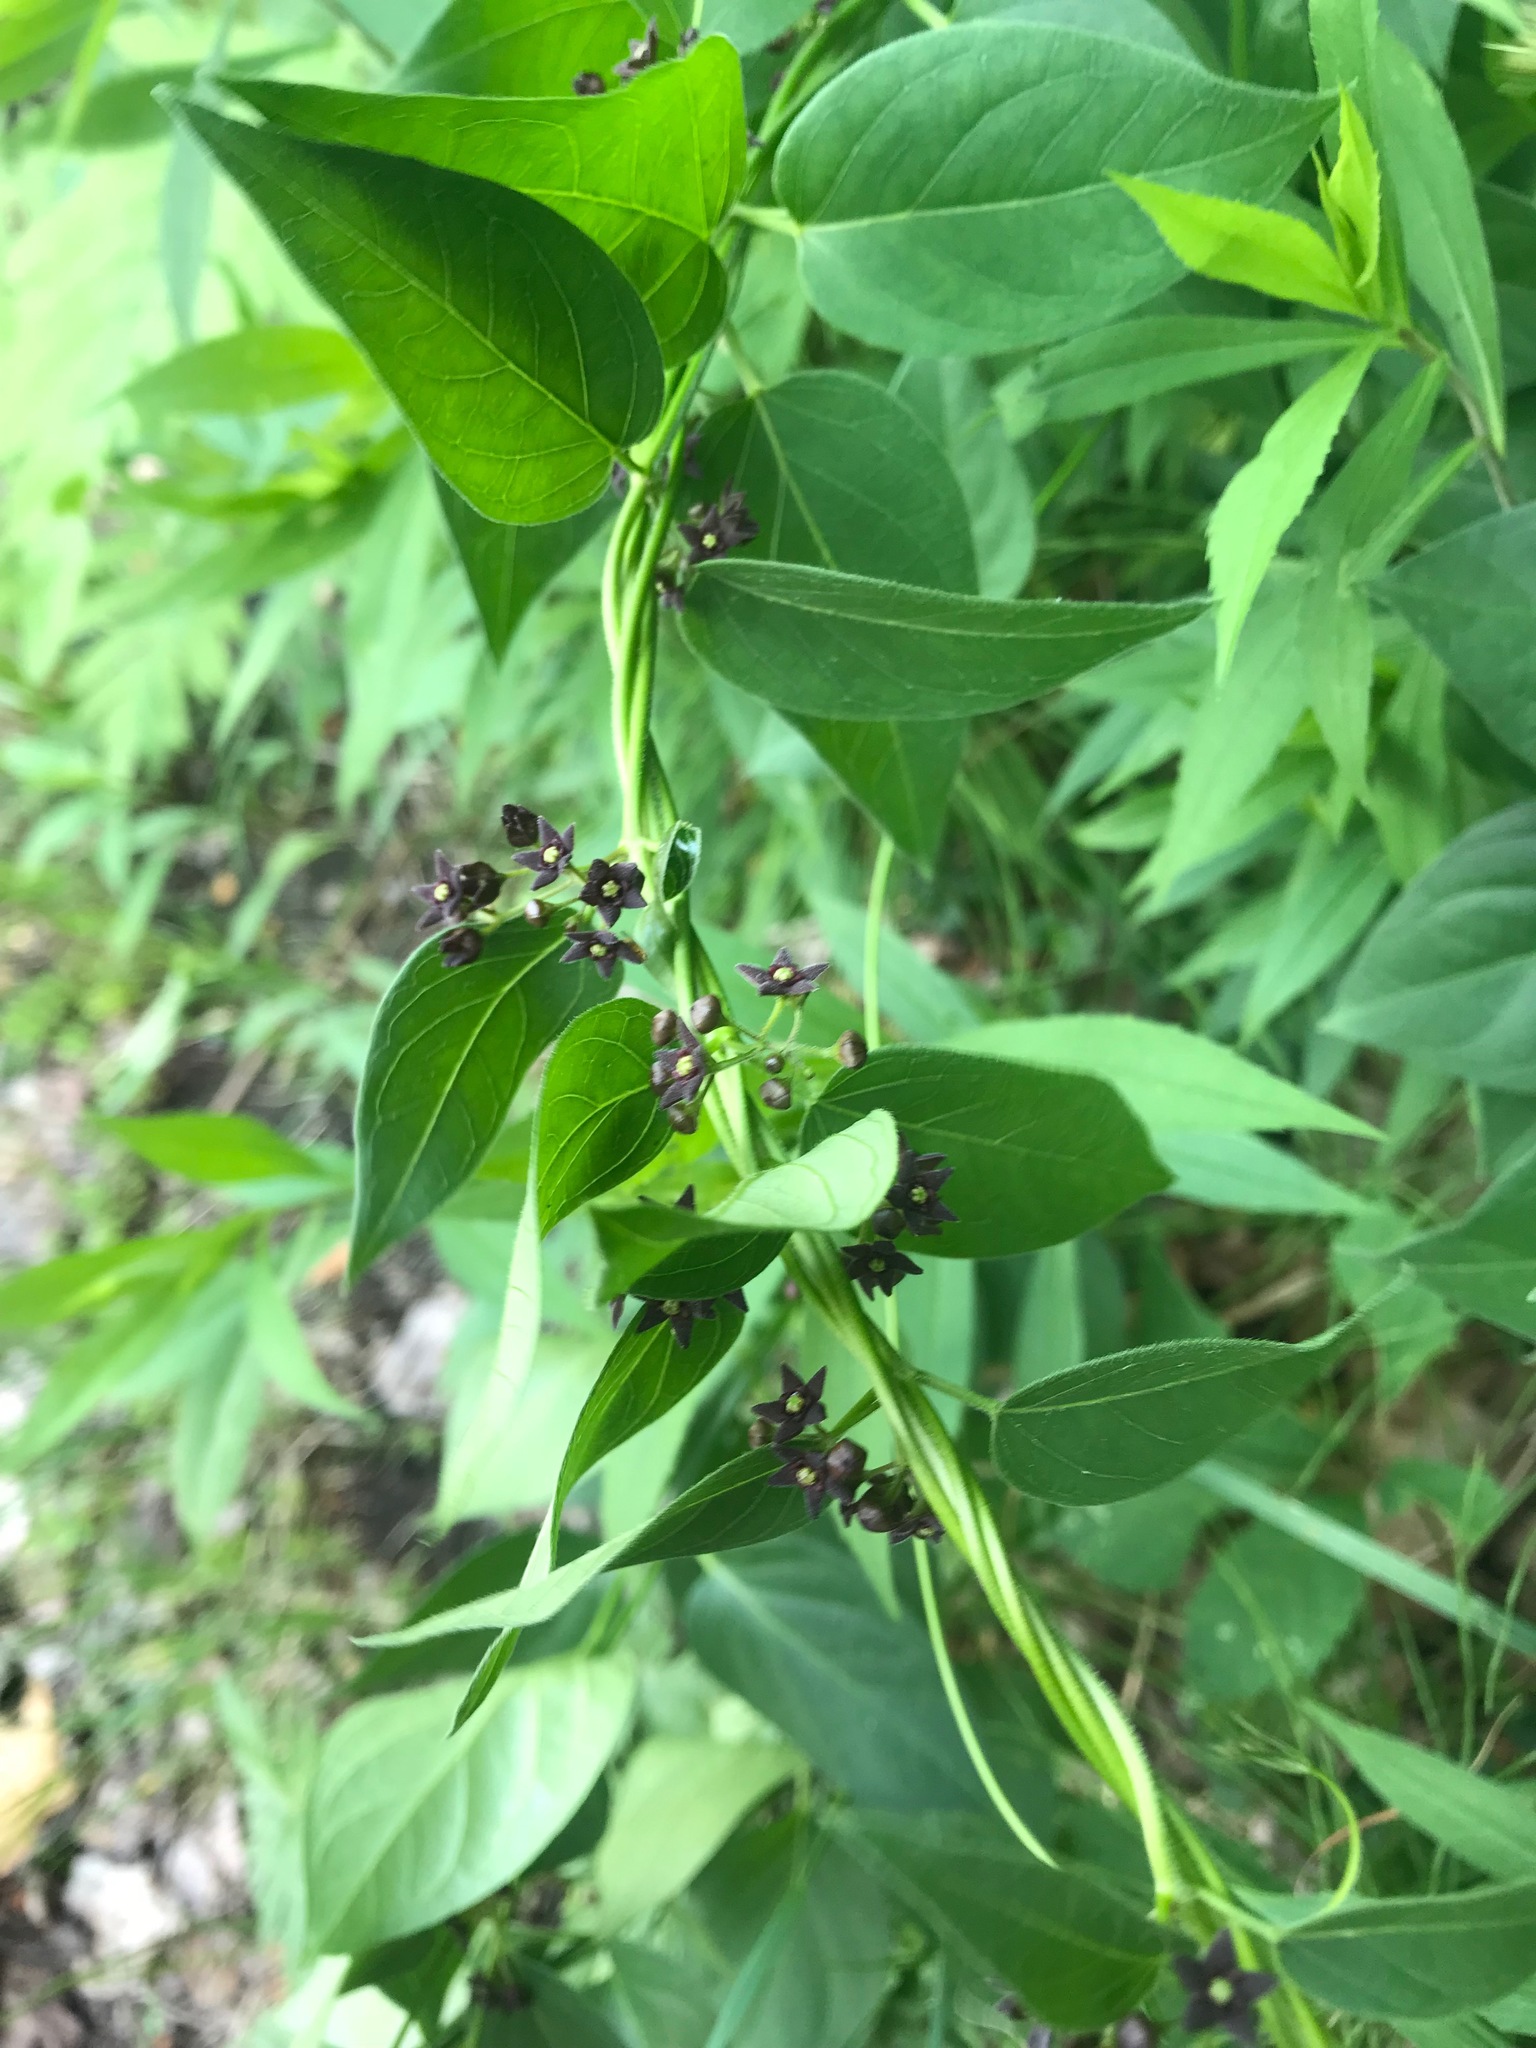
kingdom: Plantae
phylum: Tracheophyta
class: Magnoliopsida
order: Gentianales
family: Apocynaceae
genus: Vincetoxicum
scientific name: Vincetoxicum nigrum
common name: Black swallow-wort
